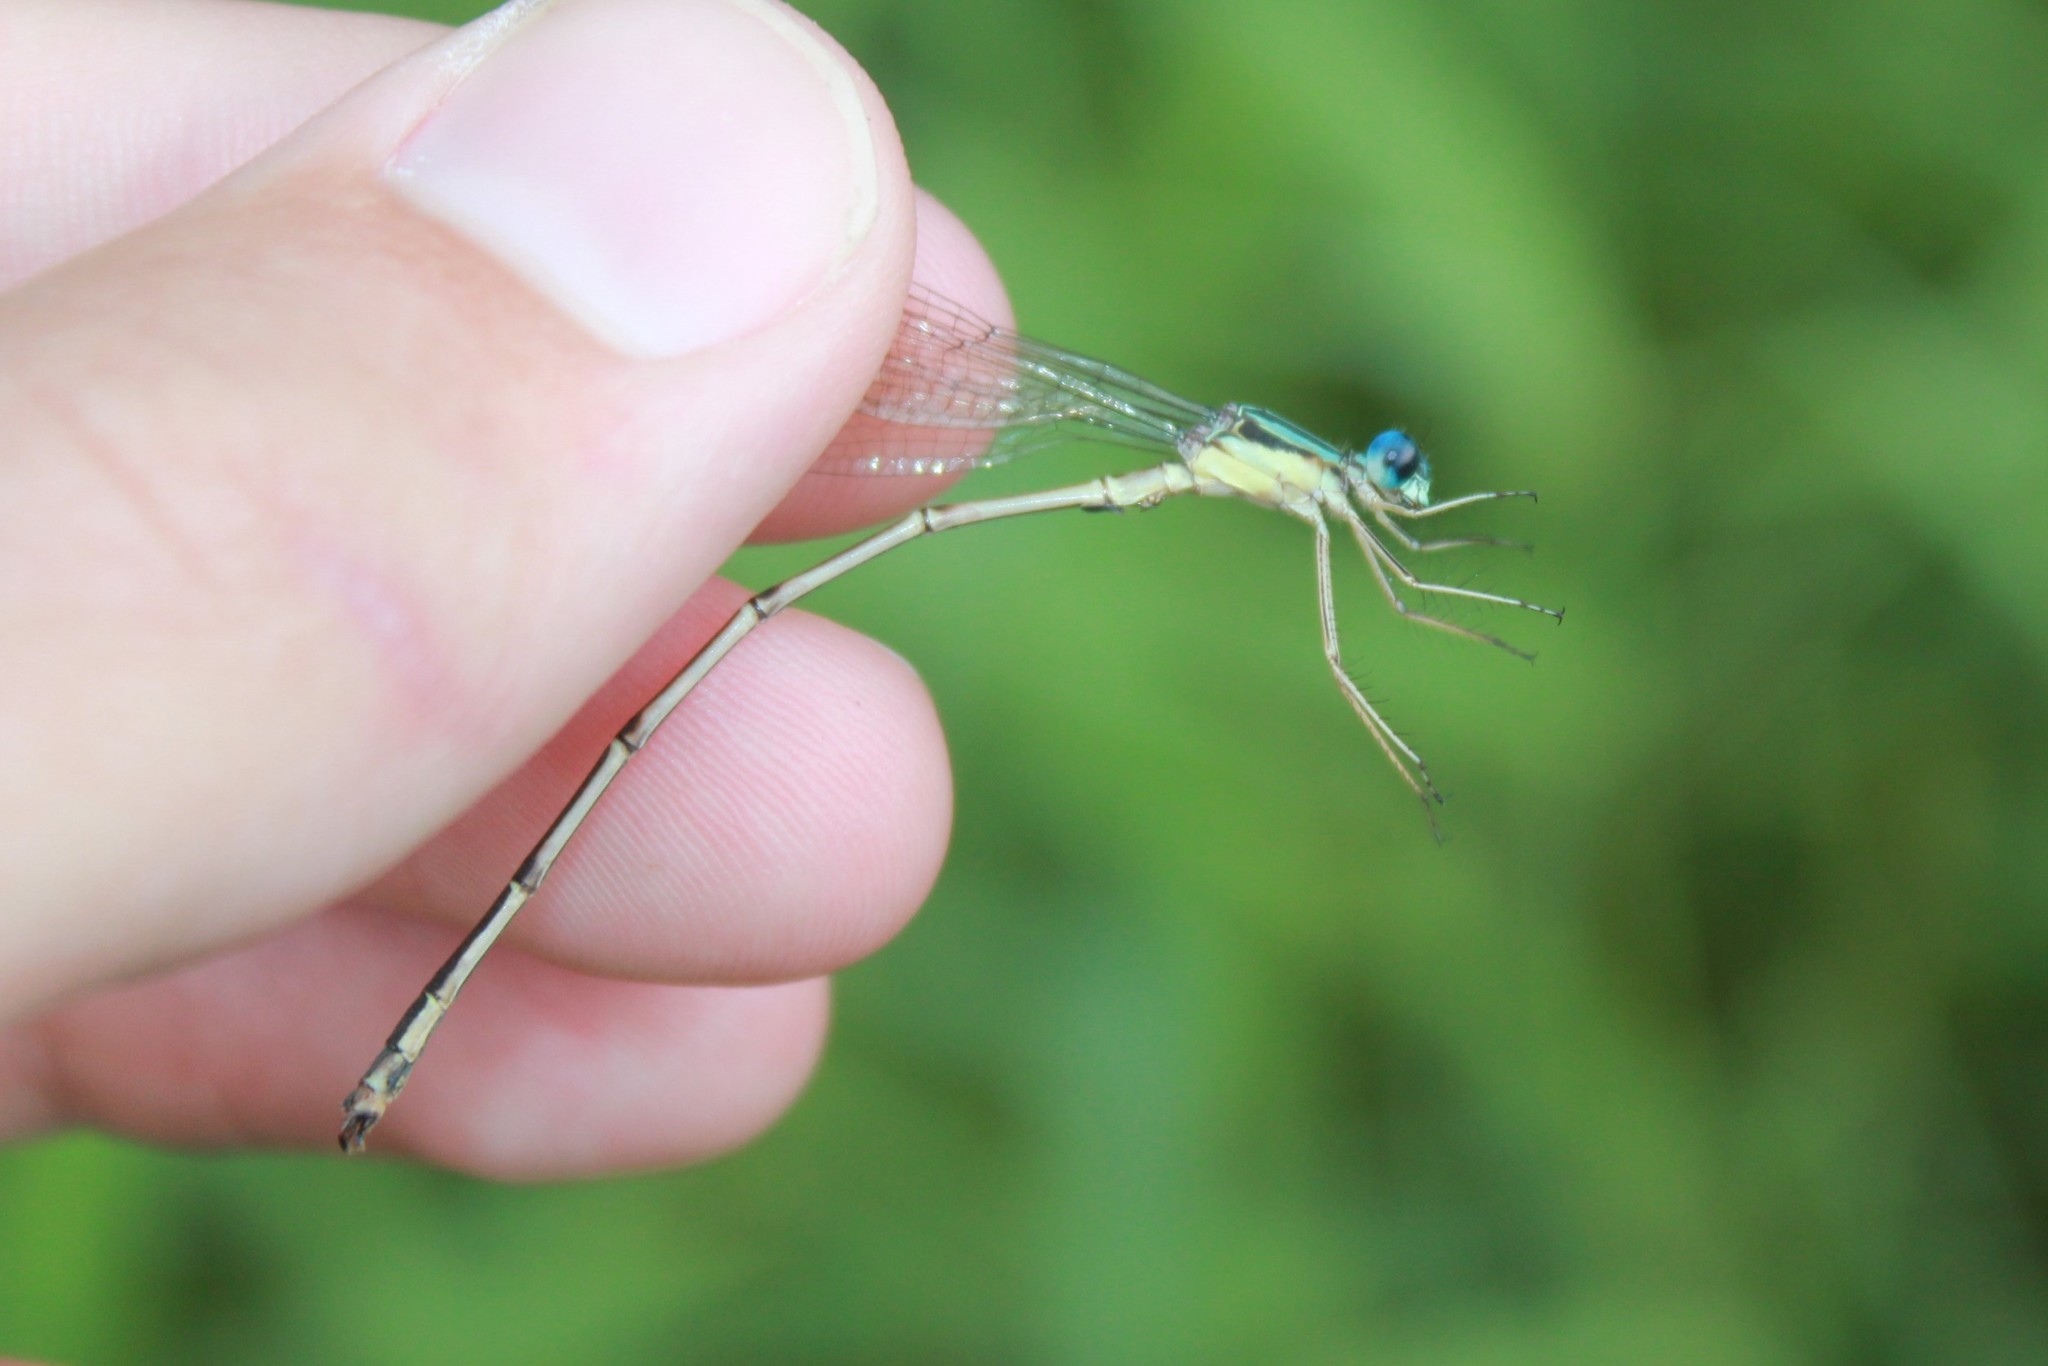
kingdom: Animalia
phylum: Arthropoda
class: Insecta
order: Odonata
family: Lestidae
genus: Lestes
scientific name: Lestes rectangularis
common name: Slender spreadwing
